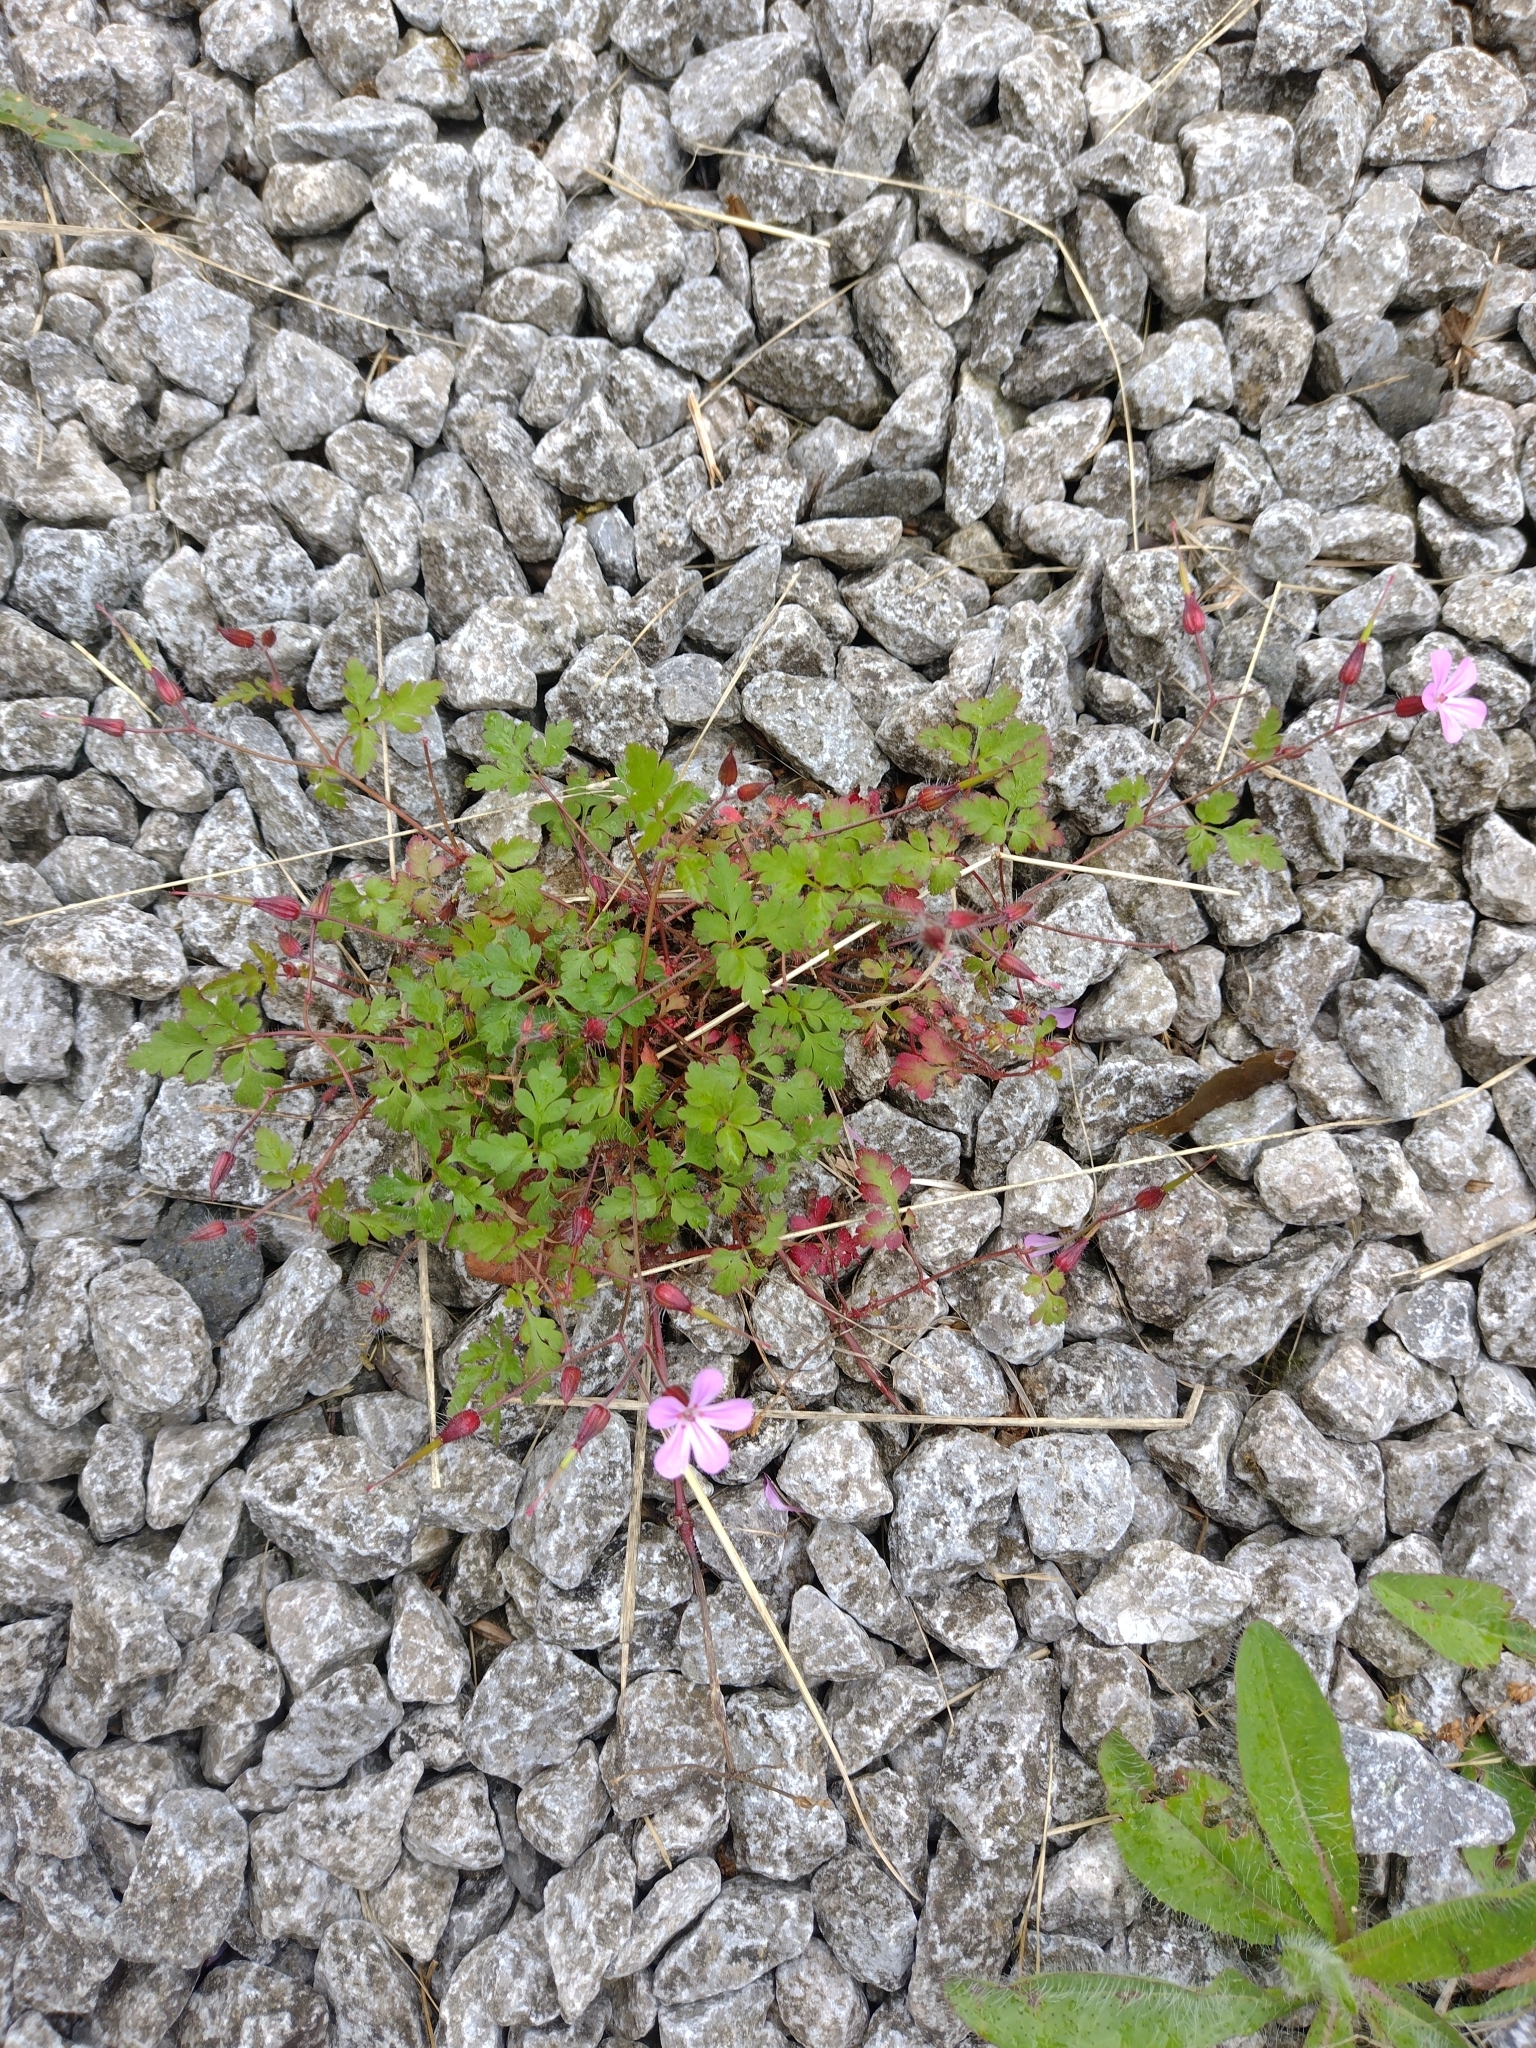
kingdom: Plantae
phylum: Tracheophyta
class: Magnoliopsida
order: Geraniales
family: Geraniaceae
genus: Geranium
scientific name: Geranium robertianum
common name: Herb-robert
